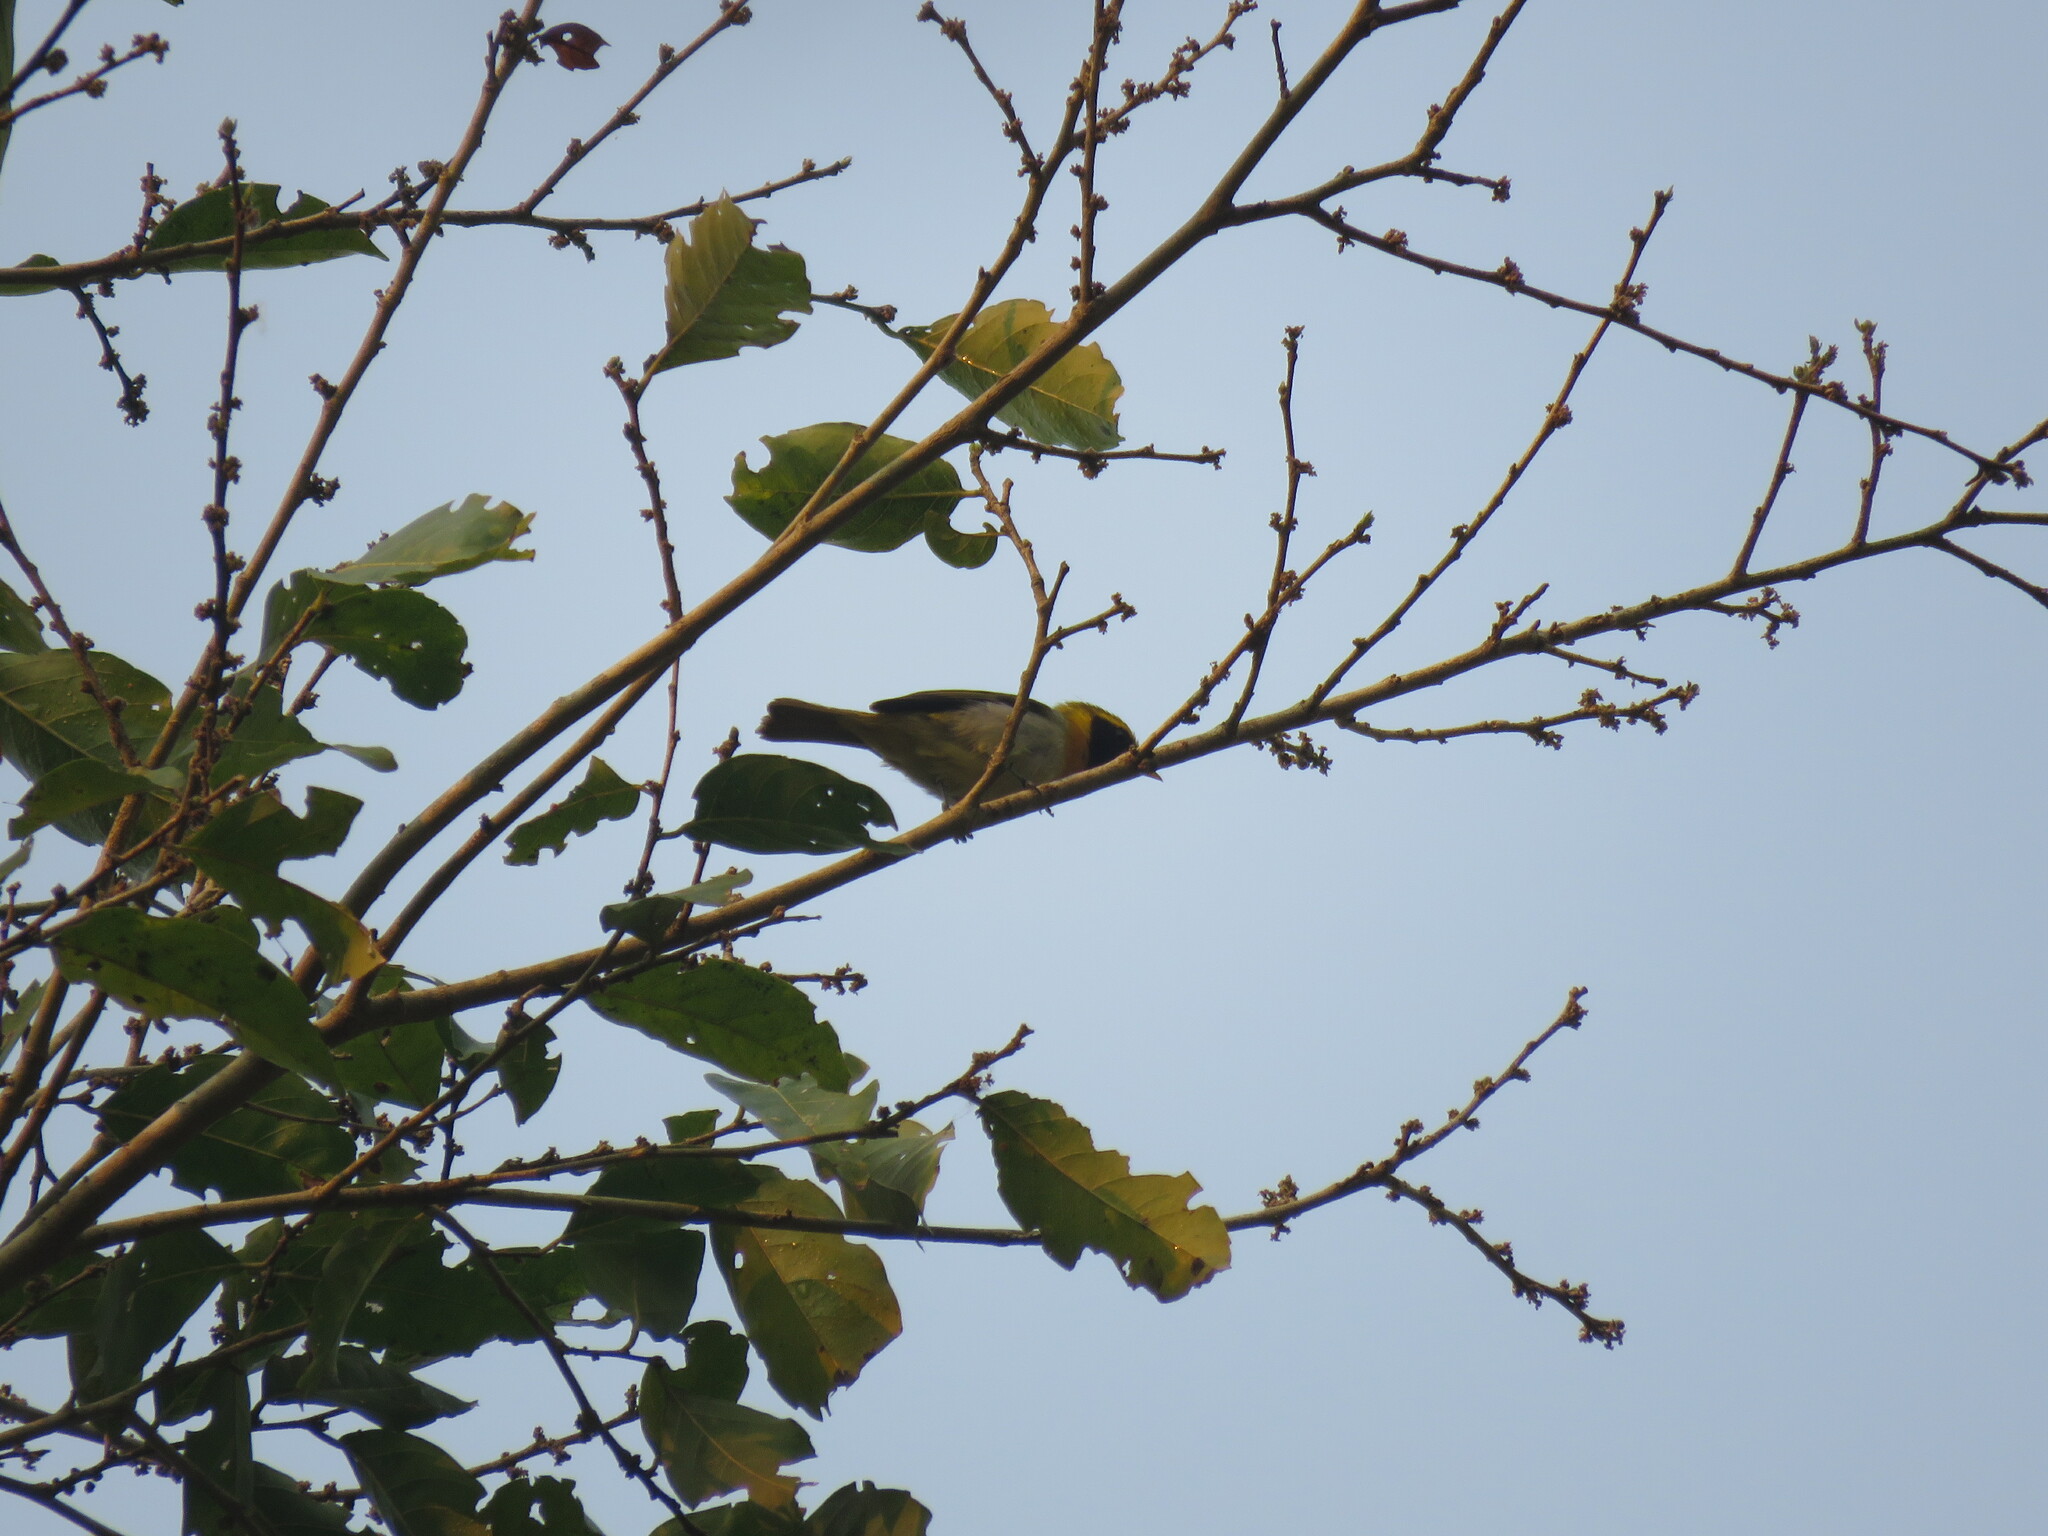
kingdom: Animalia
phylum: Chordata
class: Aves
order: Passeriformes
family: Thraupidae
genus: Hemithraupis
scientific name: Hemithraupis guira
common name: Guira tanager
